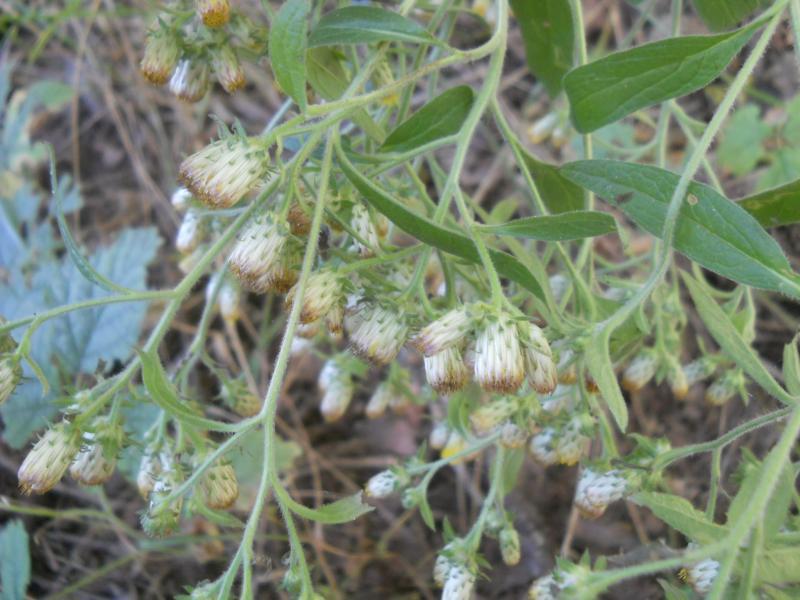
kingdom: Plantae
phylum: Tracheophyta
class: Magnoliopsida
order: Asterales
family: Asteraceae
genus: Pentanema
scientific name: Pentanema squarrosum
